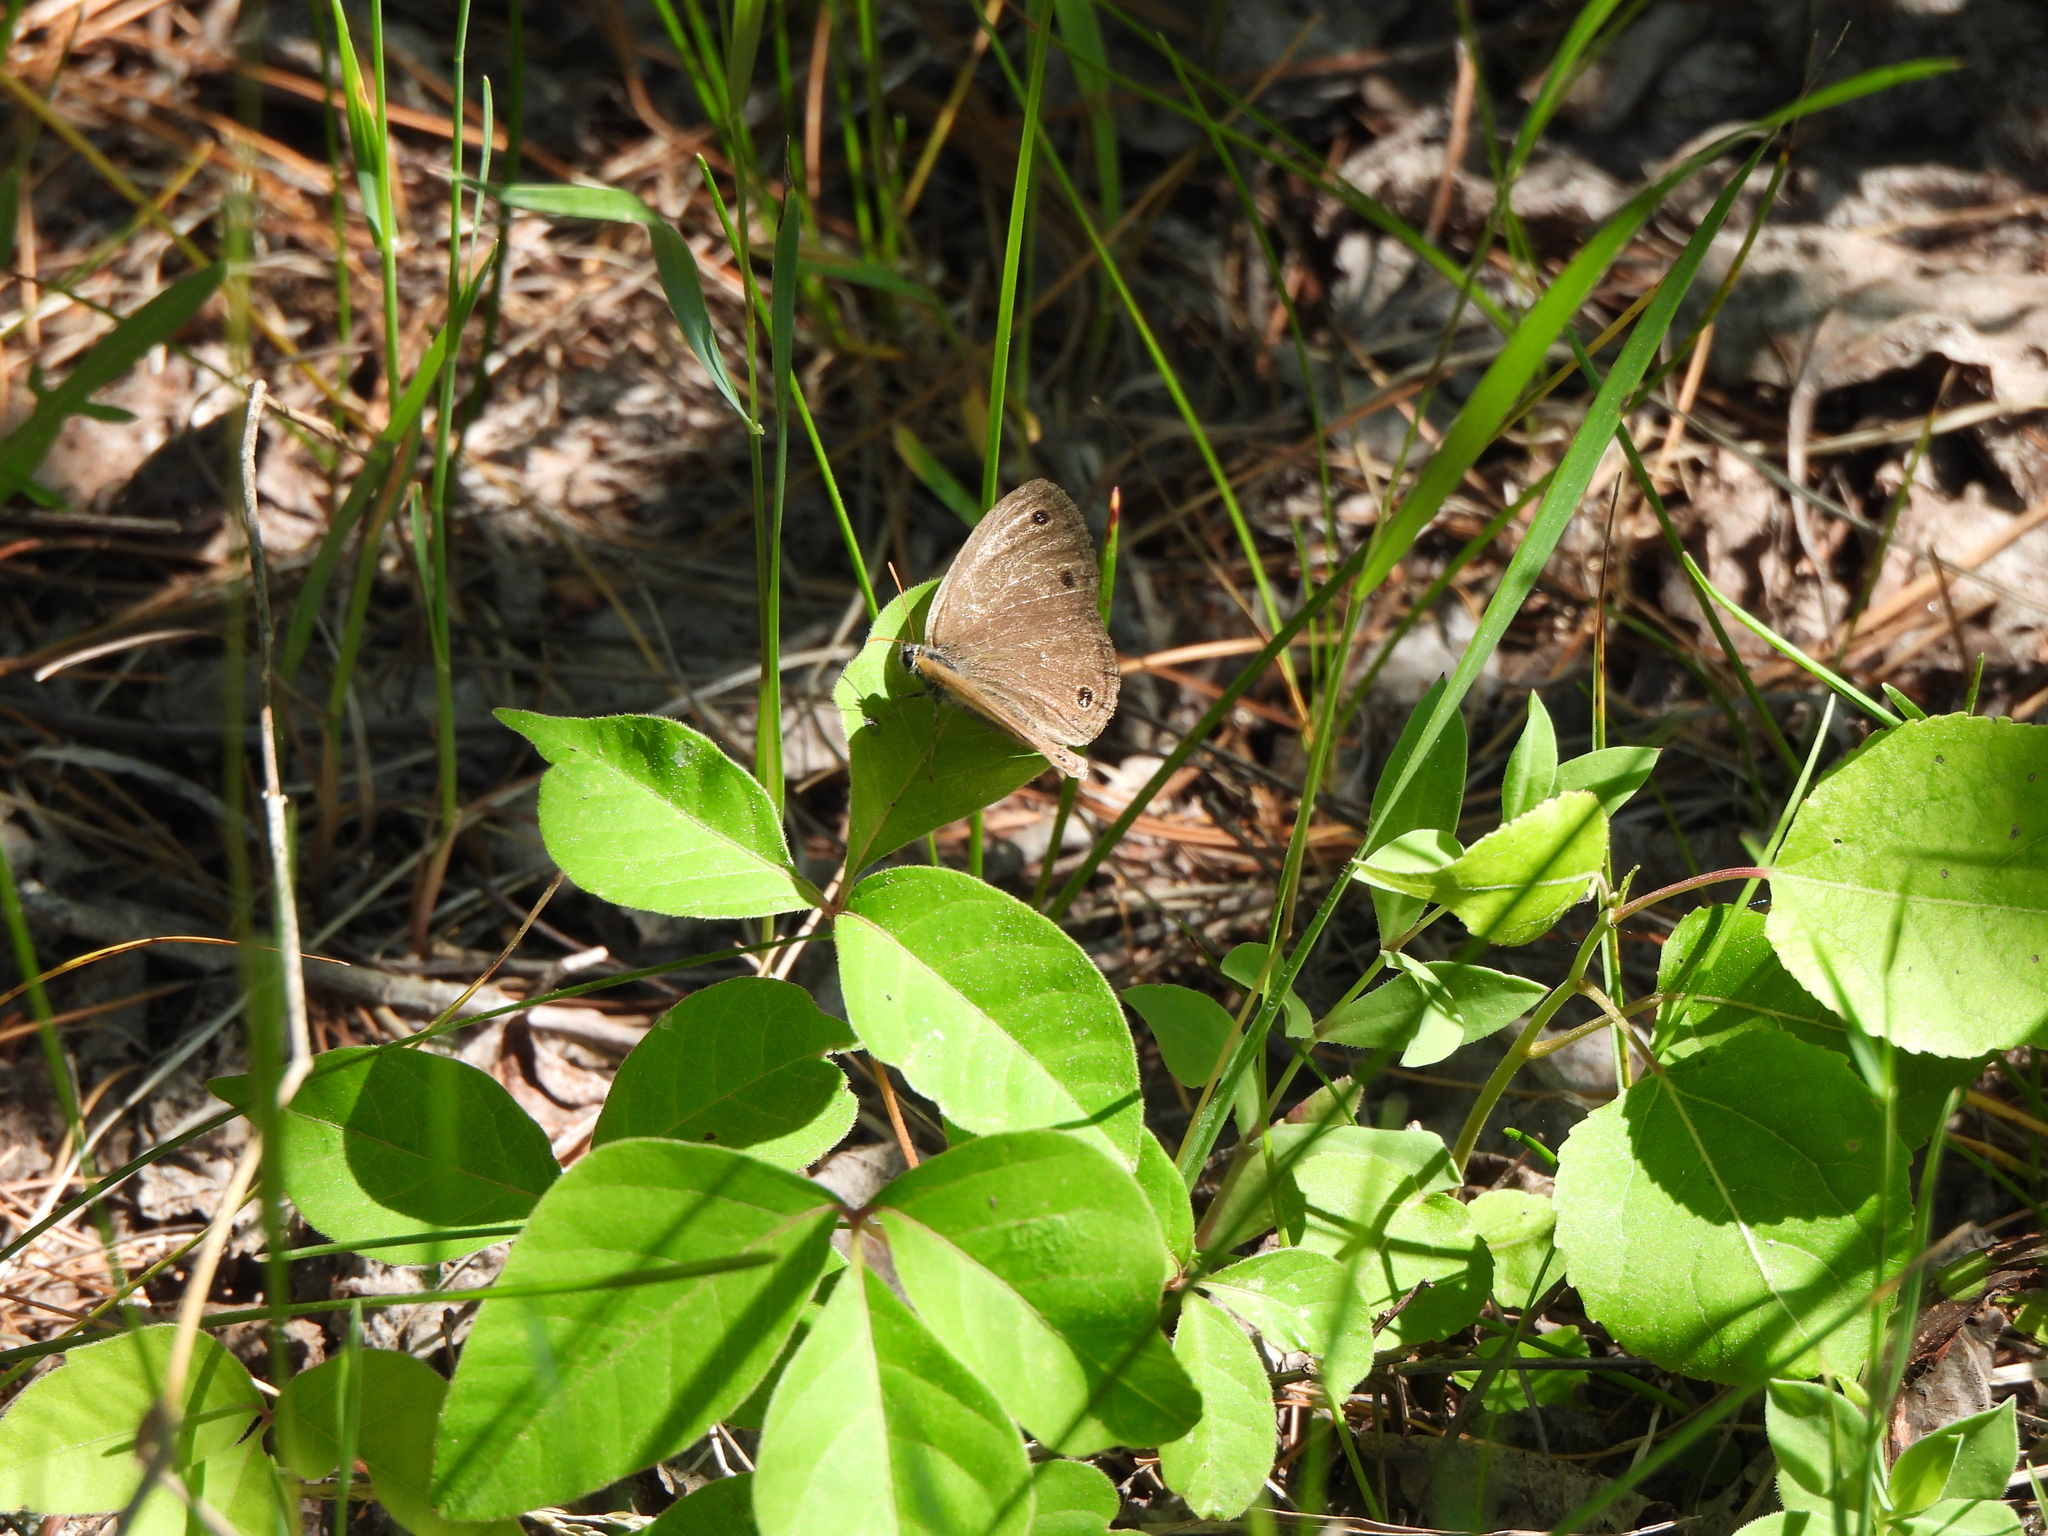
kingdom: Animalia
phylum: Arthropoda
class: Insecta
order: Lepidoptera
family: Nymphalidae
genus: Euptychia
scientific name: Euptychia cymela
